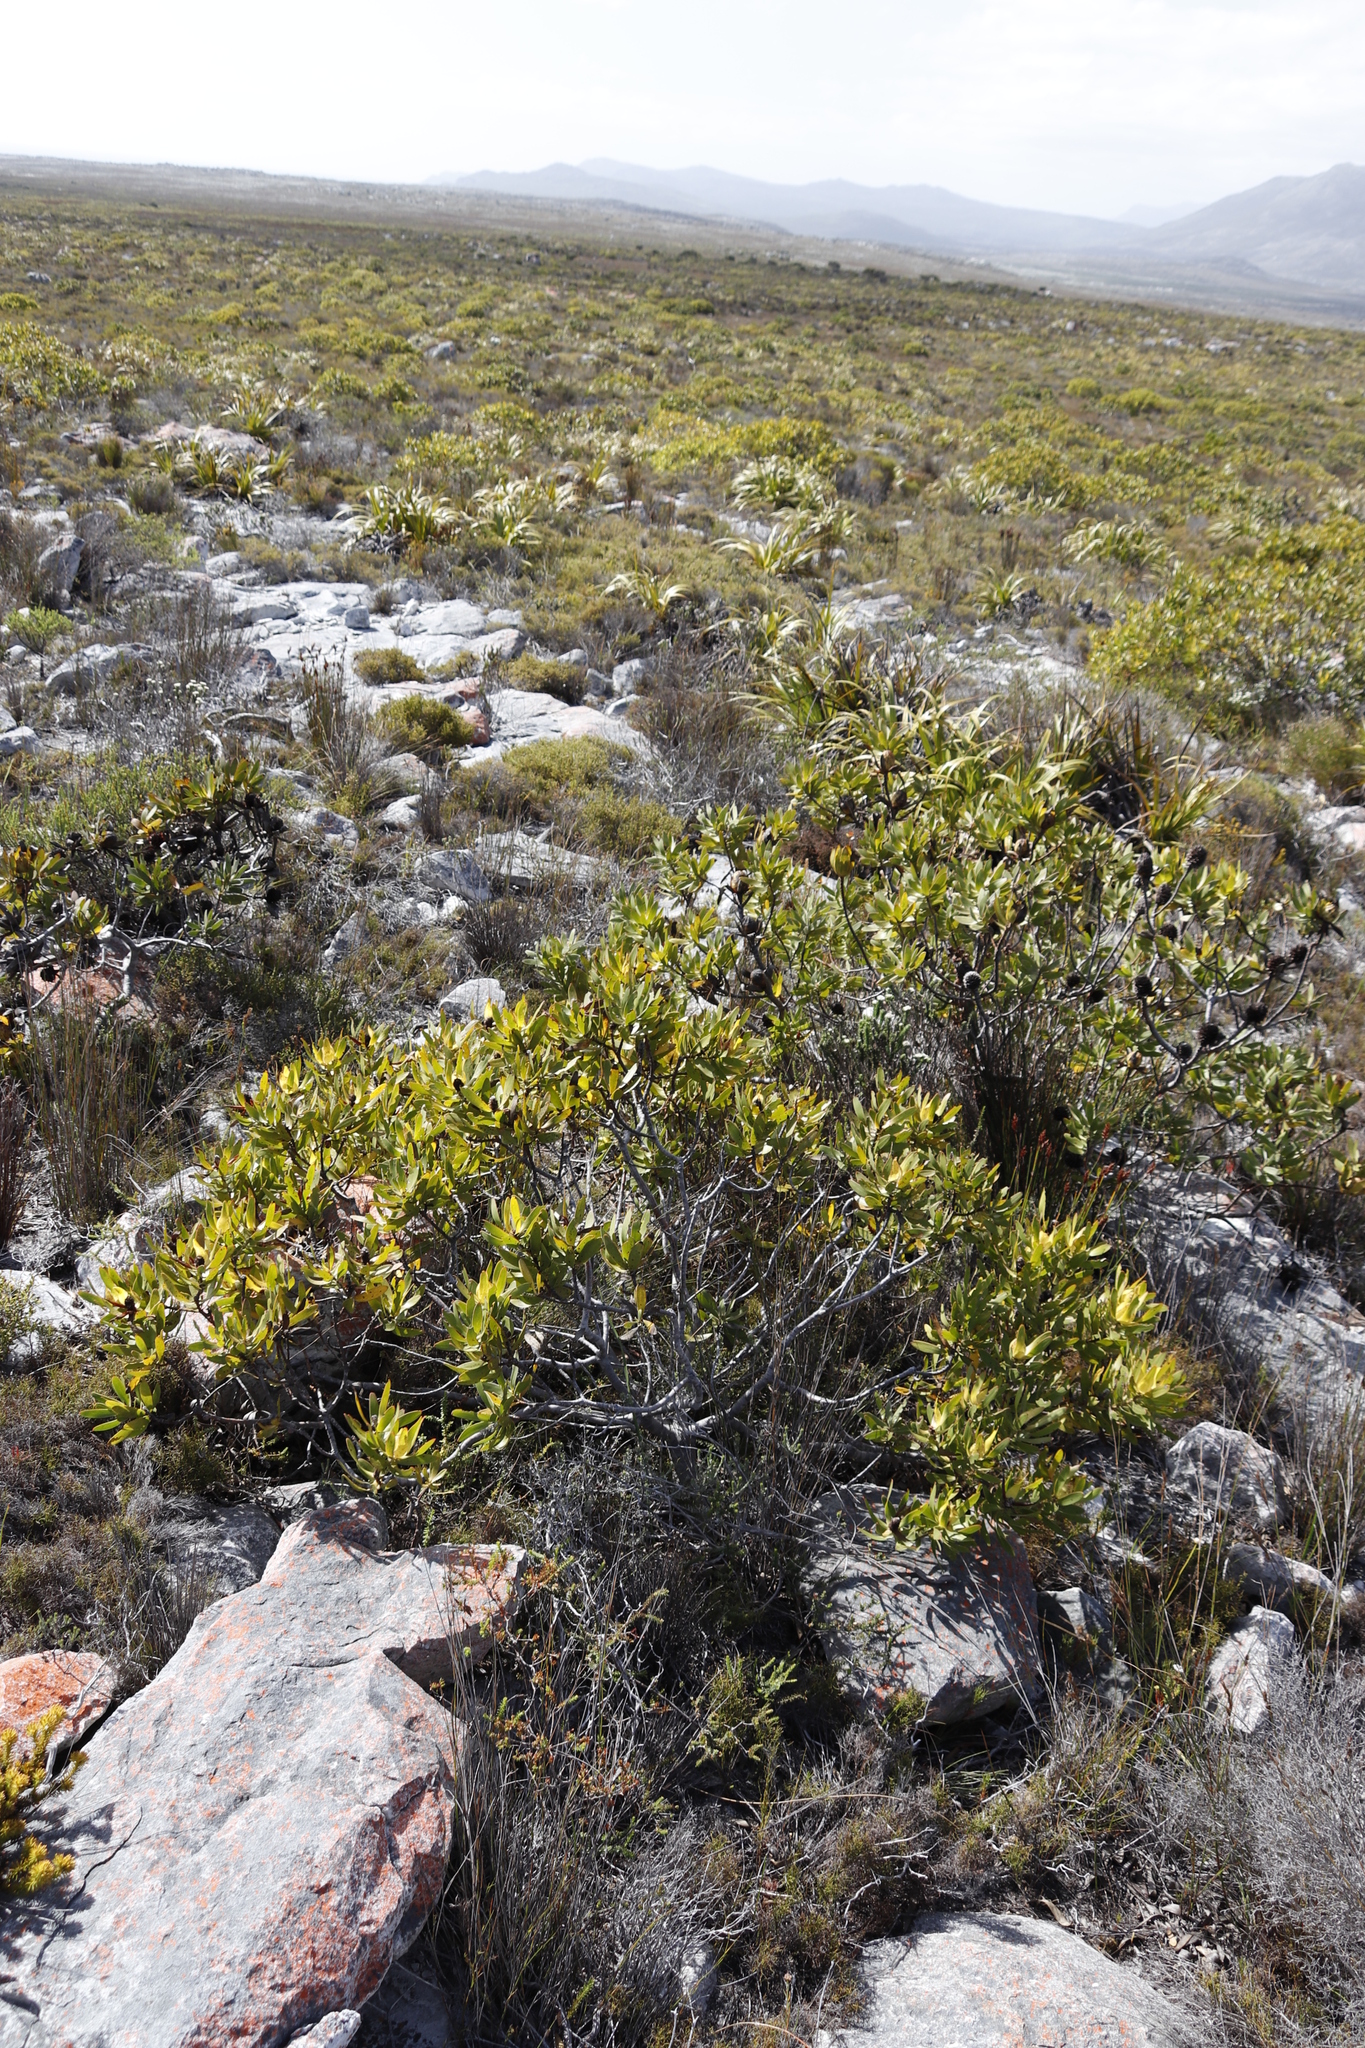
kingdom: Plantae
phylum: Tracheophyta
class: Magnoliopsida
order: Proteales
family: Proteaceae
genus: Leucadendron
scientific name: Leucadendron laureolum
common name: Golden sunshinebush
